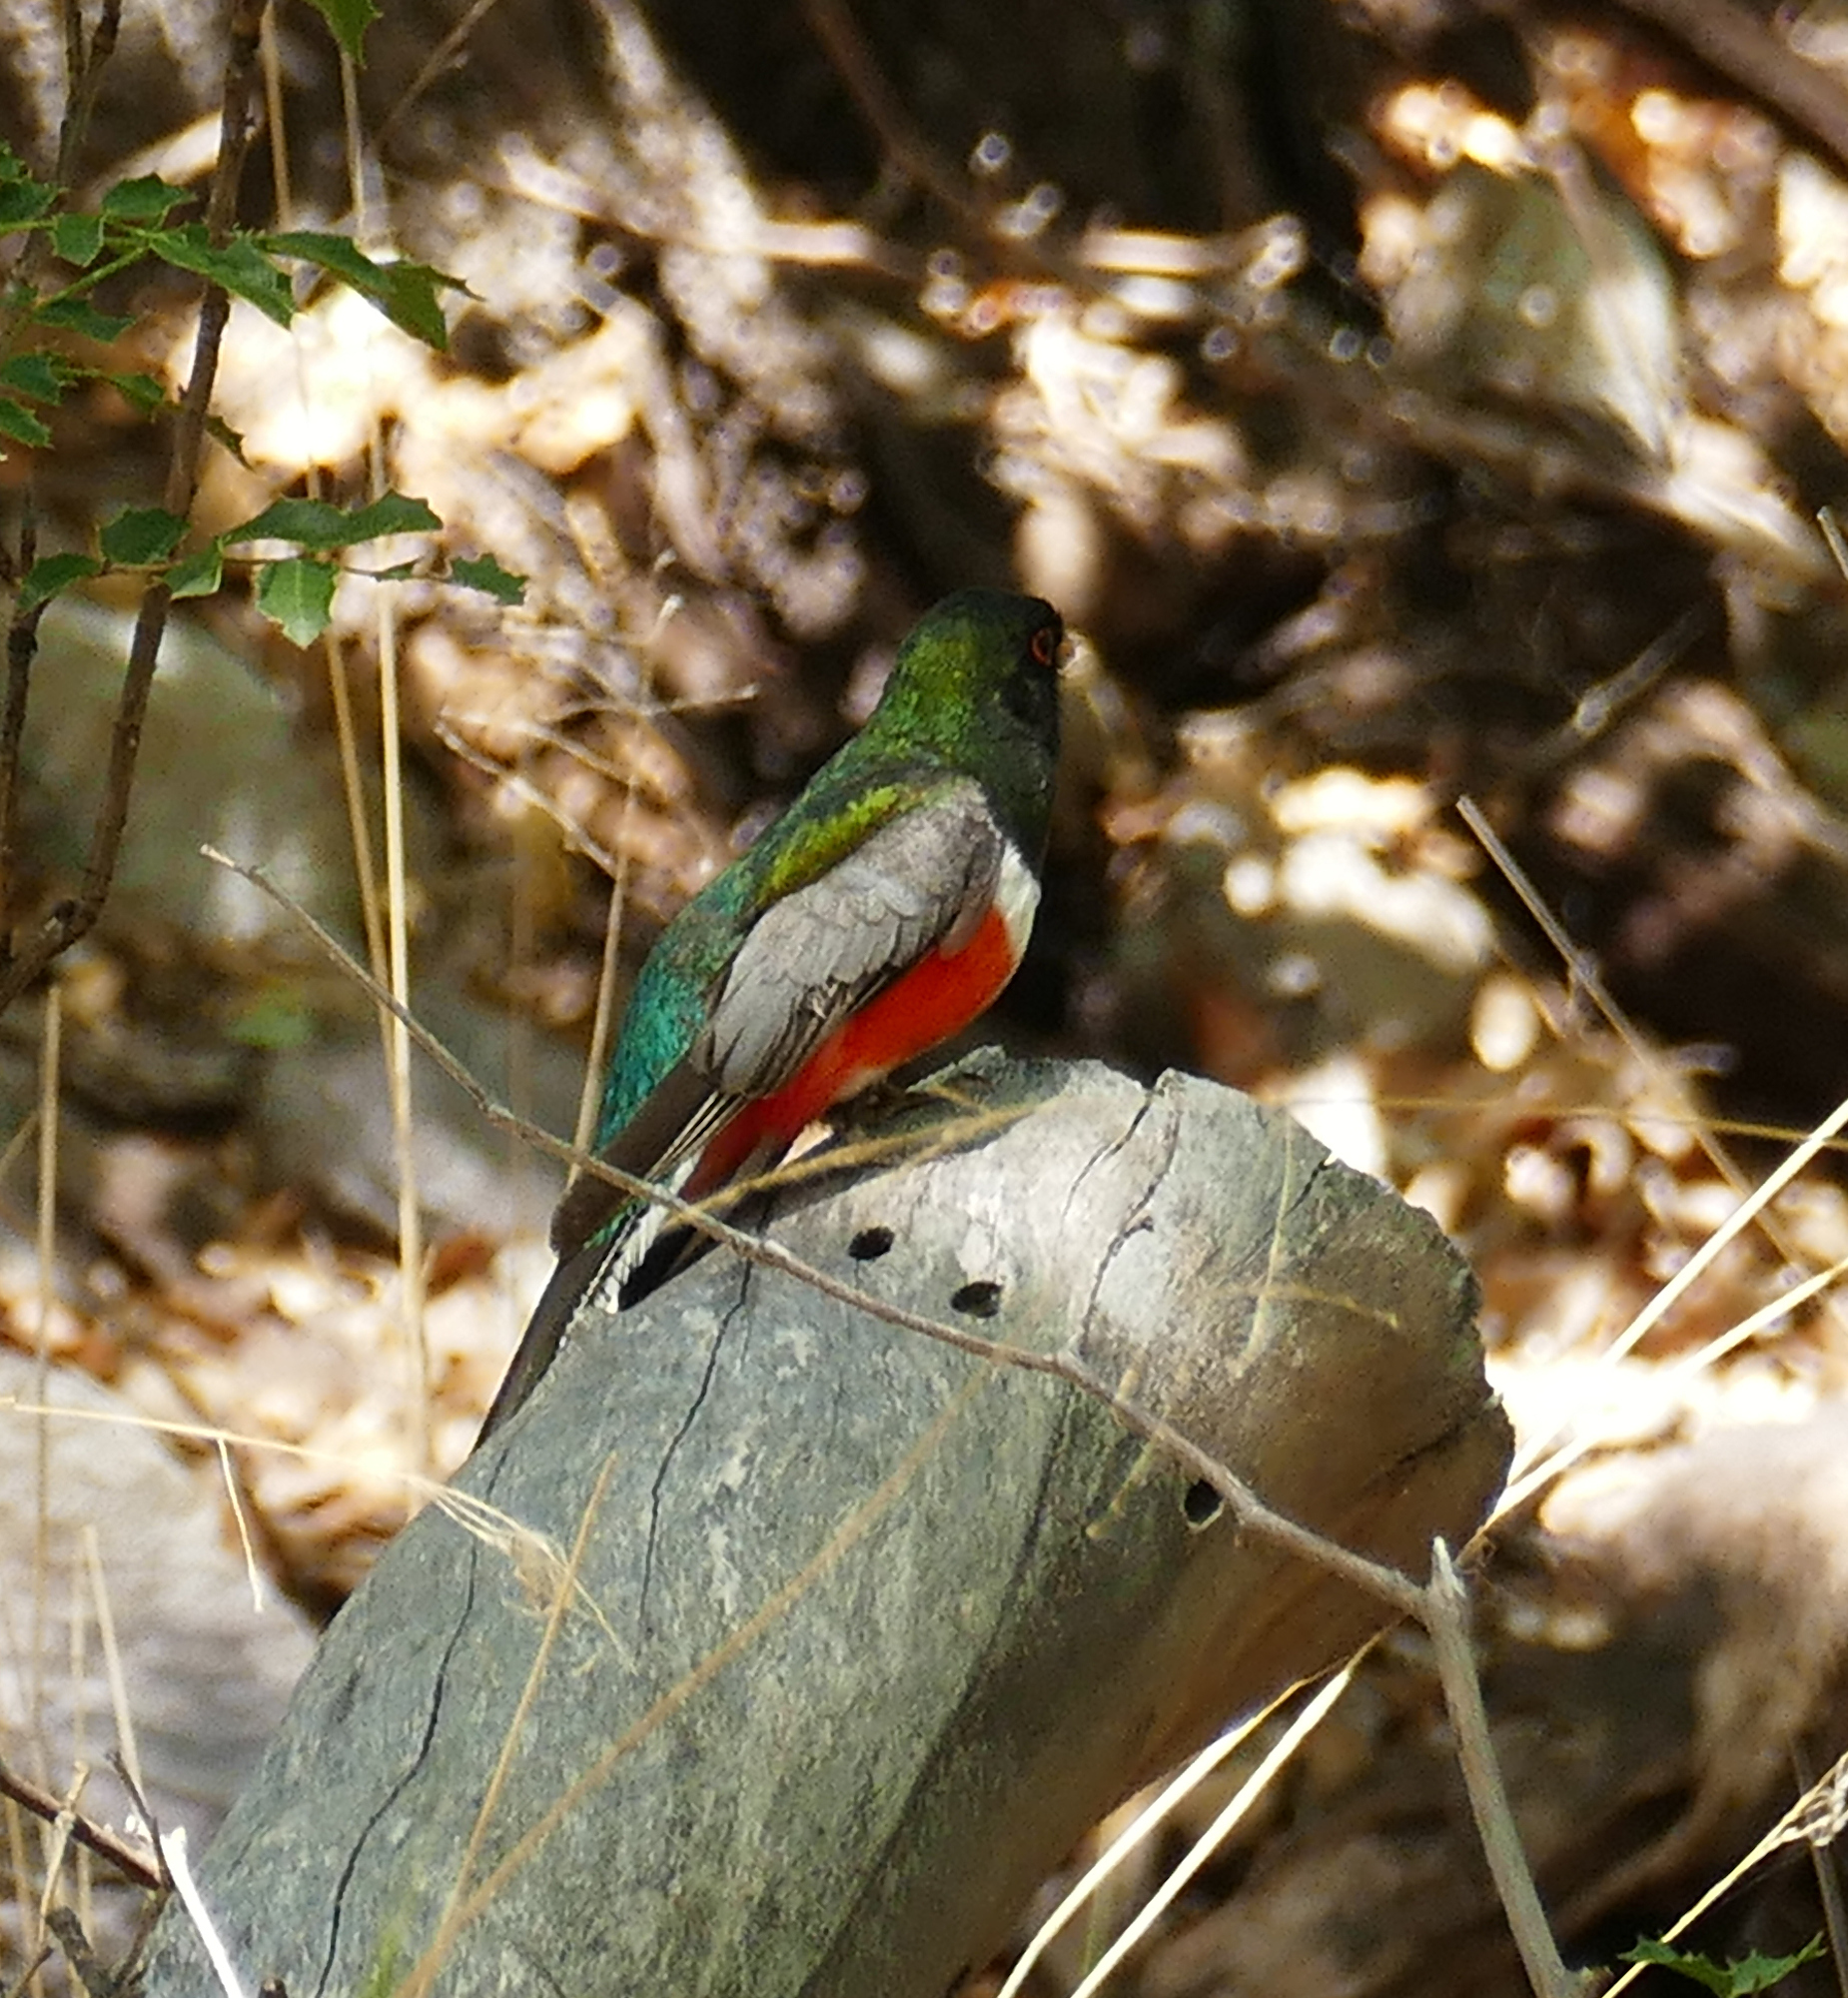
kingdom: Animalia
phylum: Chordata
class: Aves
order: Trogoniformes
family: Trogonidae
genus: Trogon
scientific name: Trogon elegans
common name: Elegant trogon
